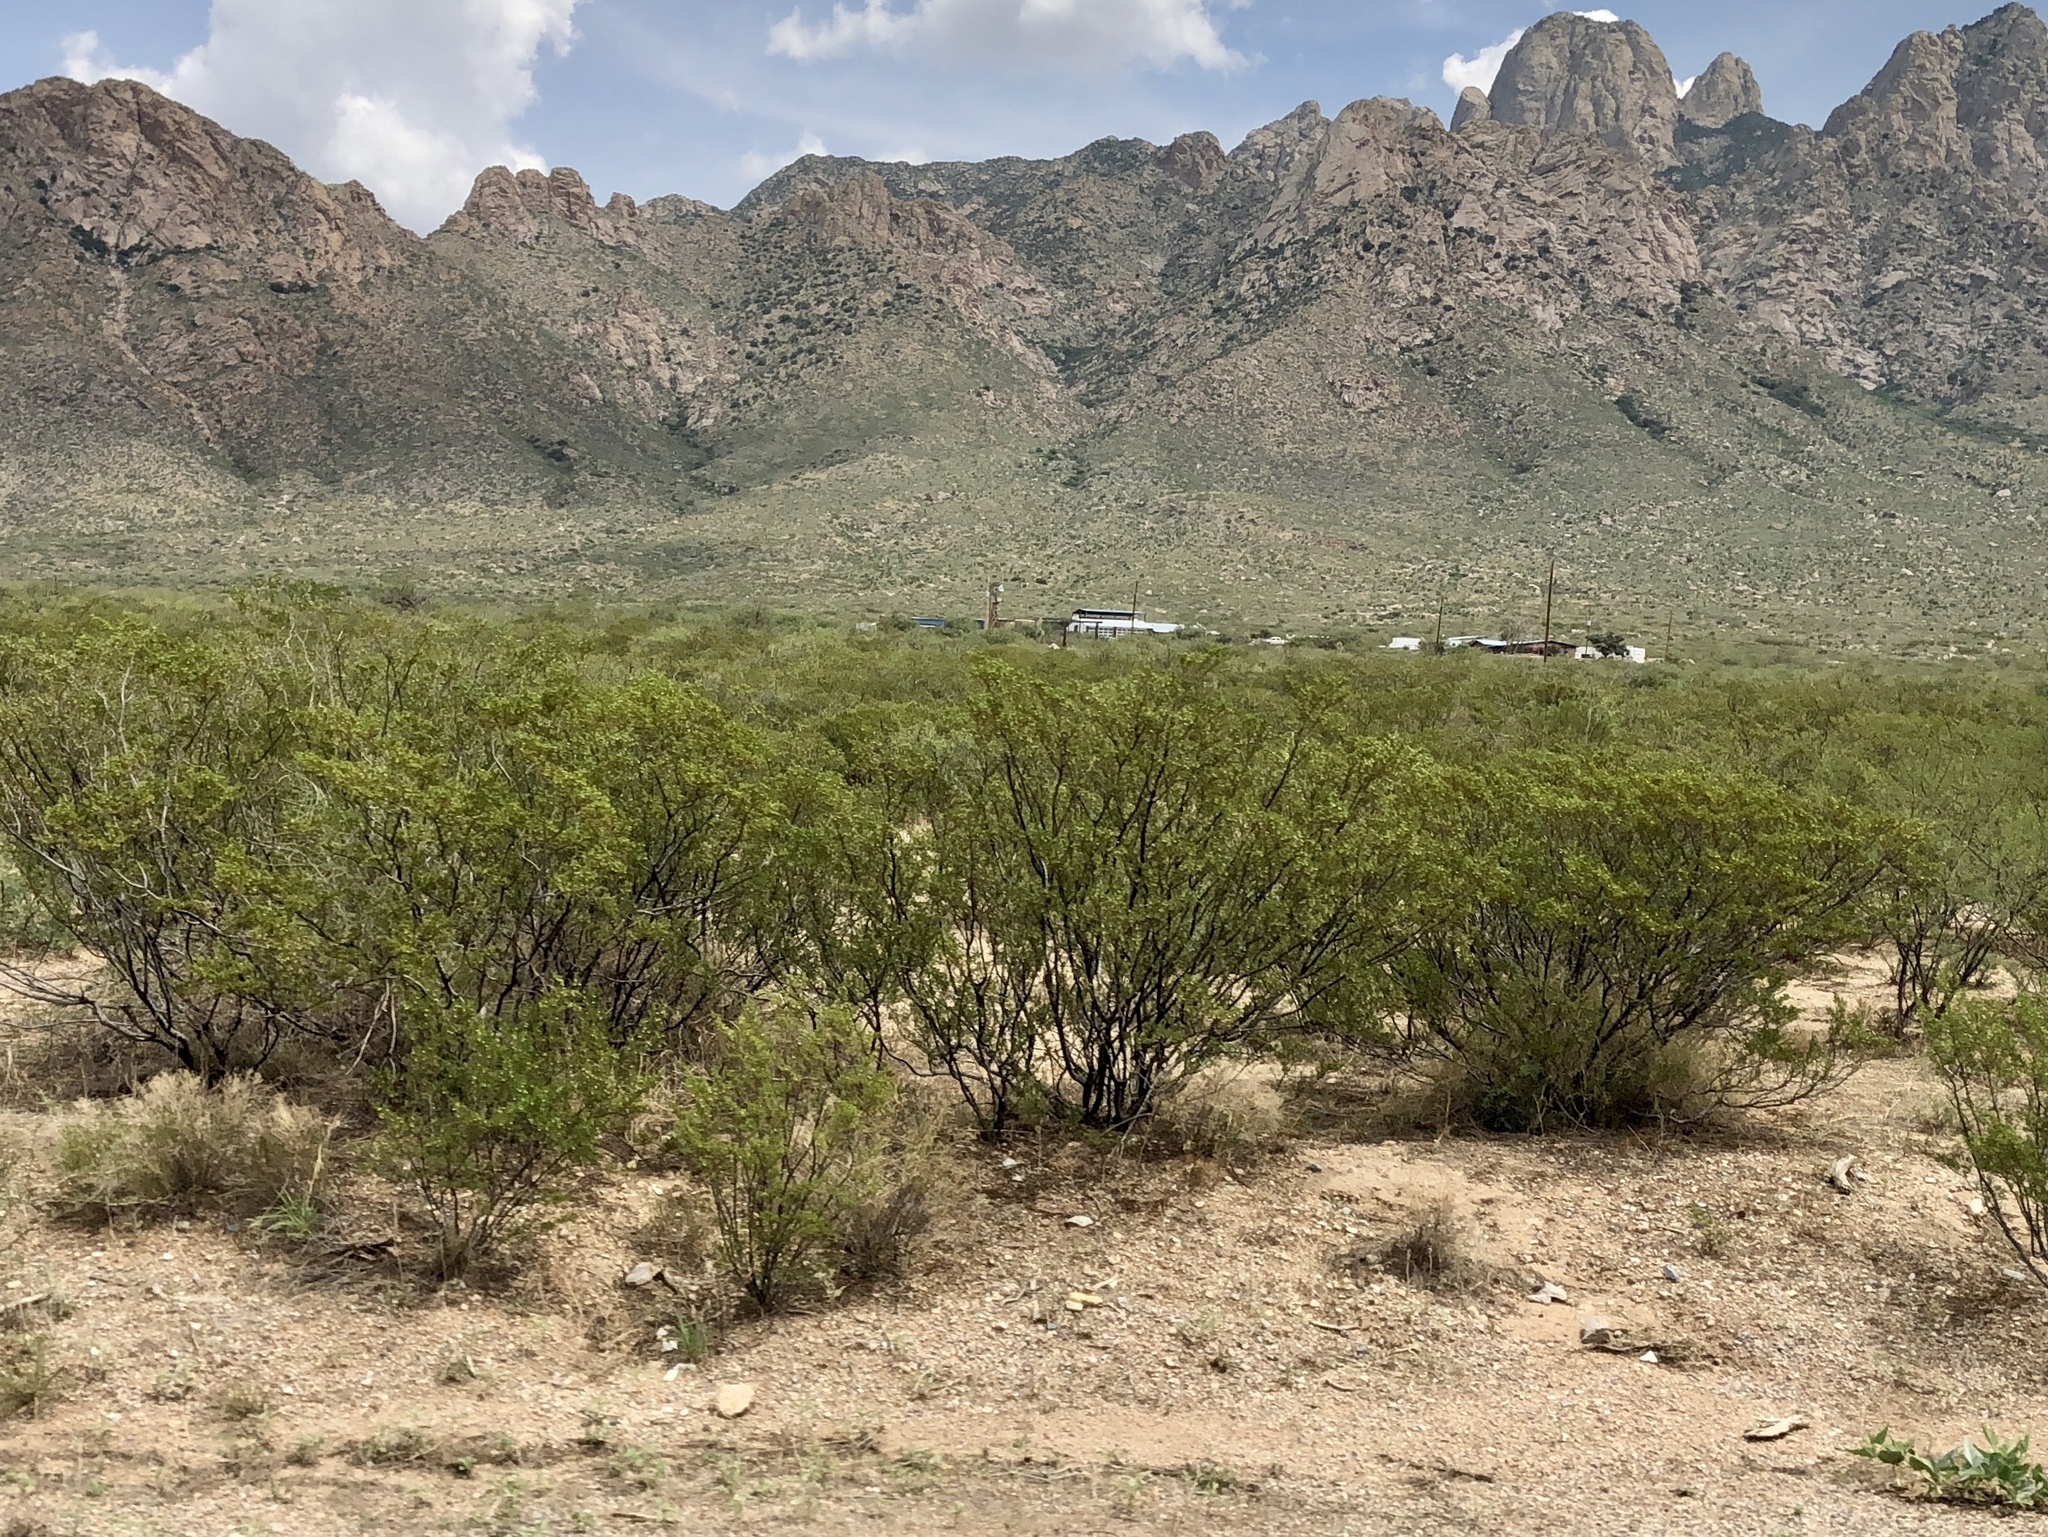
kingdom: Plantae
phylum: Tracheophyta
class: Magnoliopsida
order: Zygophyllales
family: Zygophyllaceae
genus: Larrea
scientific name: Larrea tridentata
